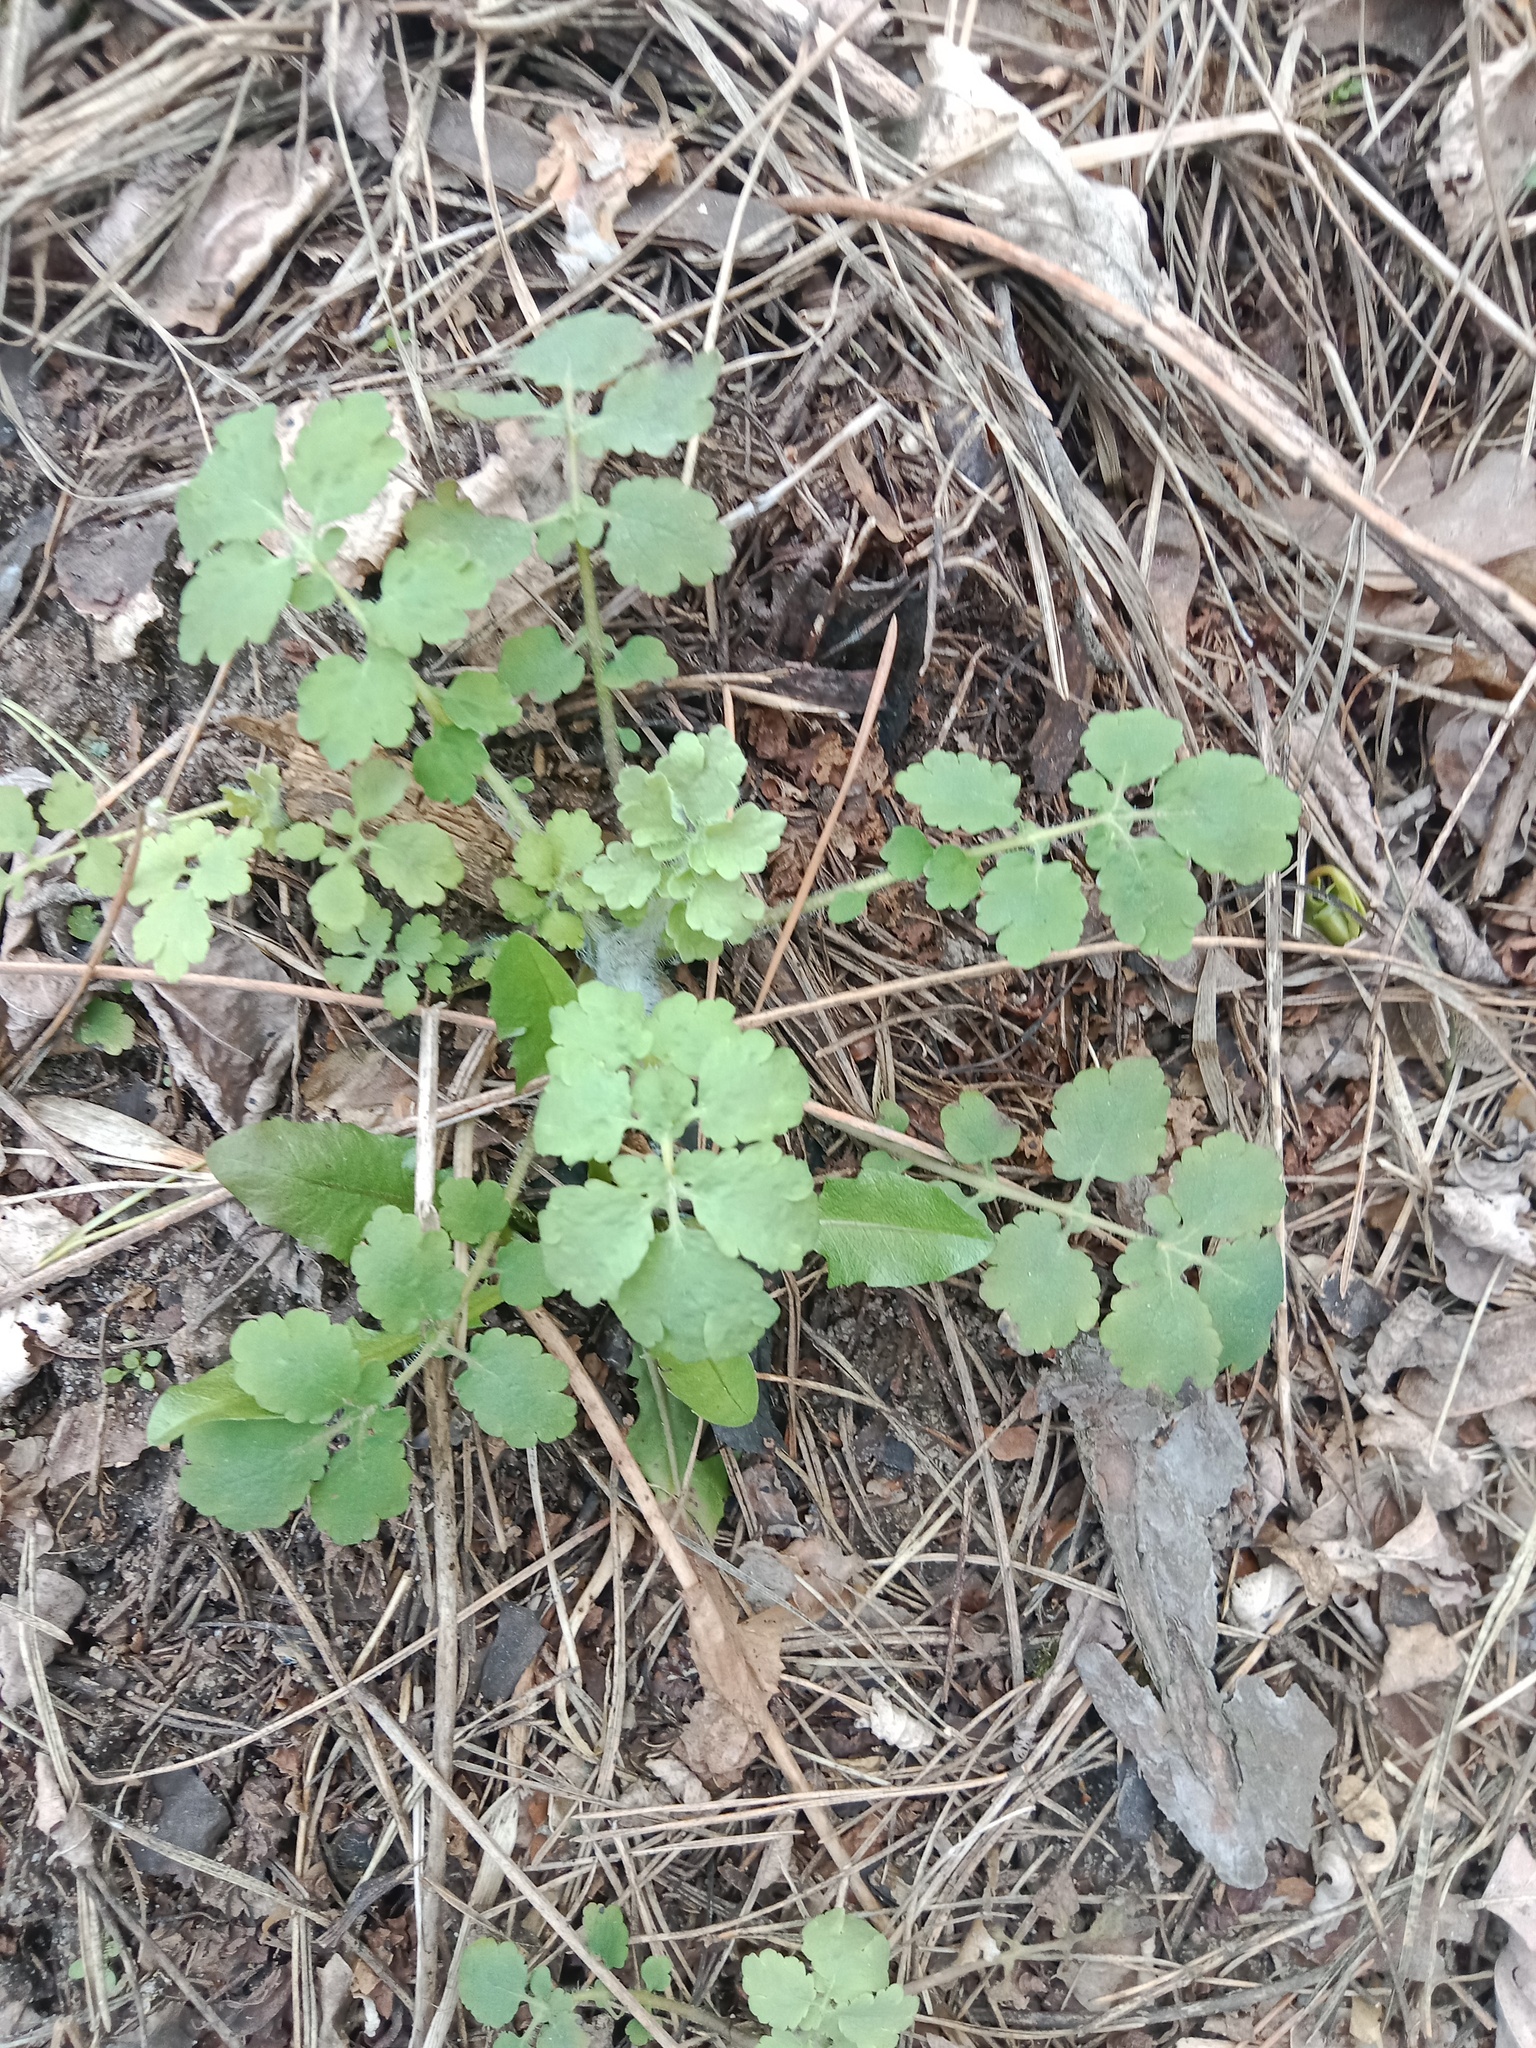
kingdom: Plantae
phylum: Tracheophyta
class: Magnoliopsida
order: Ranunculales
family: Papaveraceae
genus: Chelidonium
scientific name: Chelidonium majus
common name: Greater celandine
